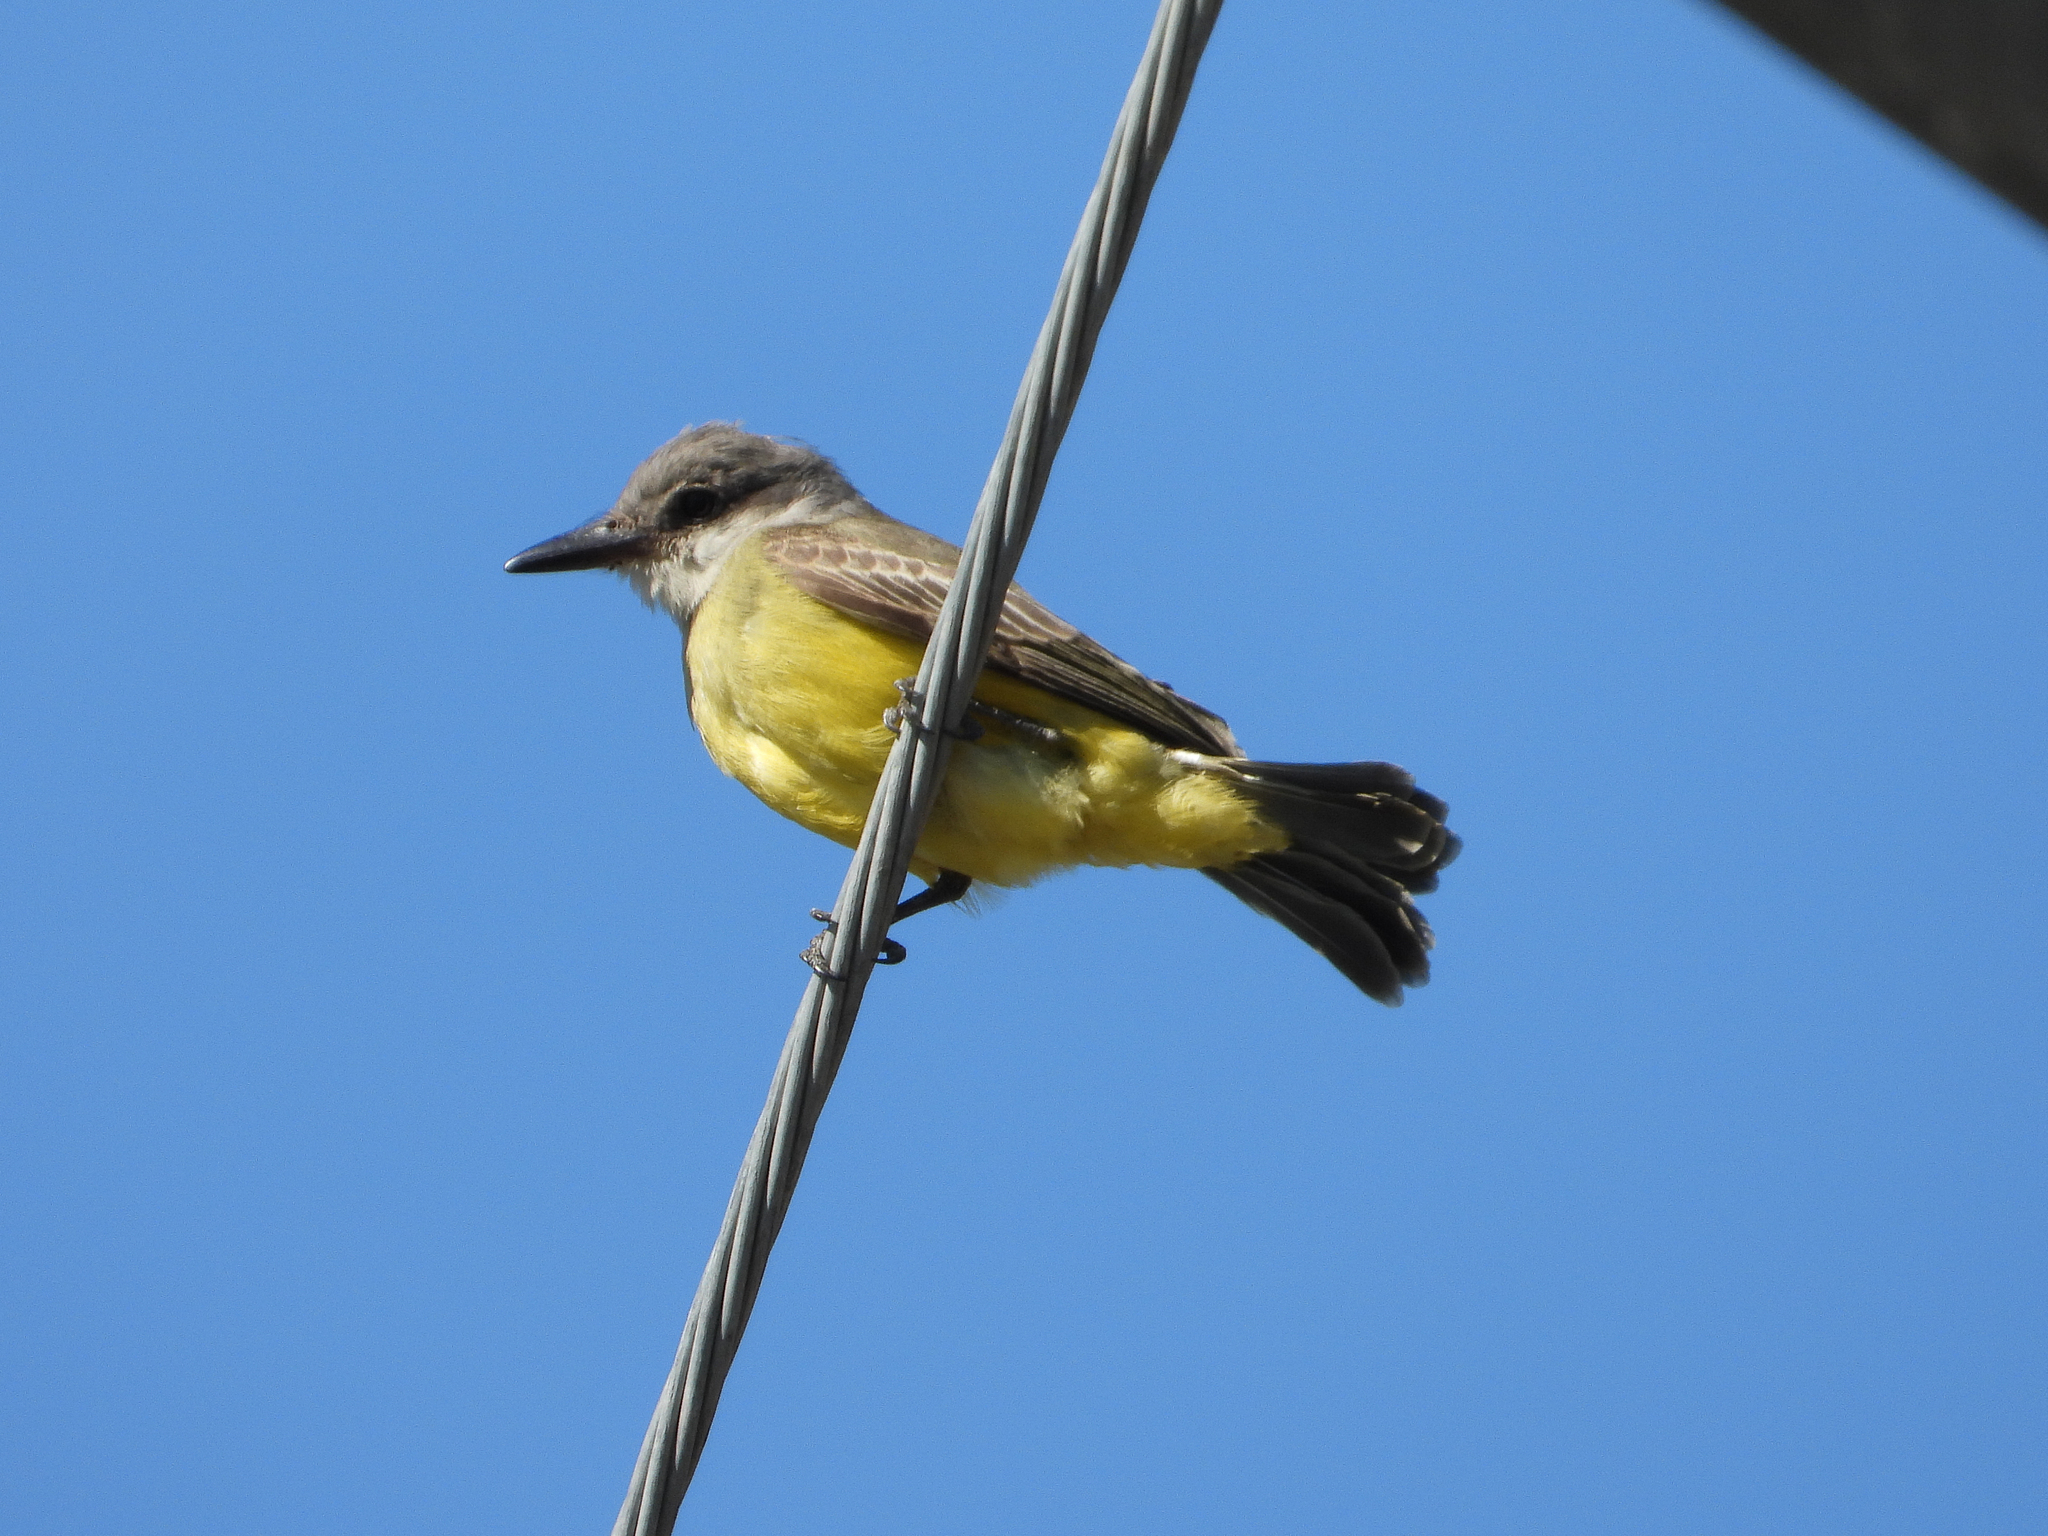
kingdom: Animalia
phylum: Chordata
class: Aves
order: Passeriformes
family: Tyrannidae
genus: Tyrannus
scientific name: Tyrannus melancholicus
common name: Tropical kingbird
